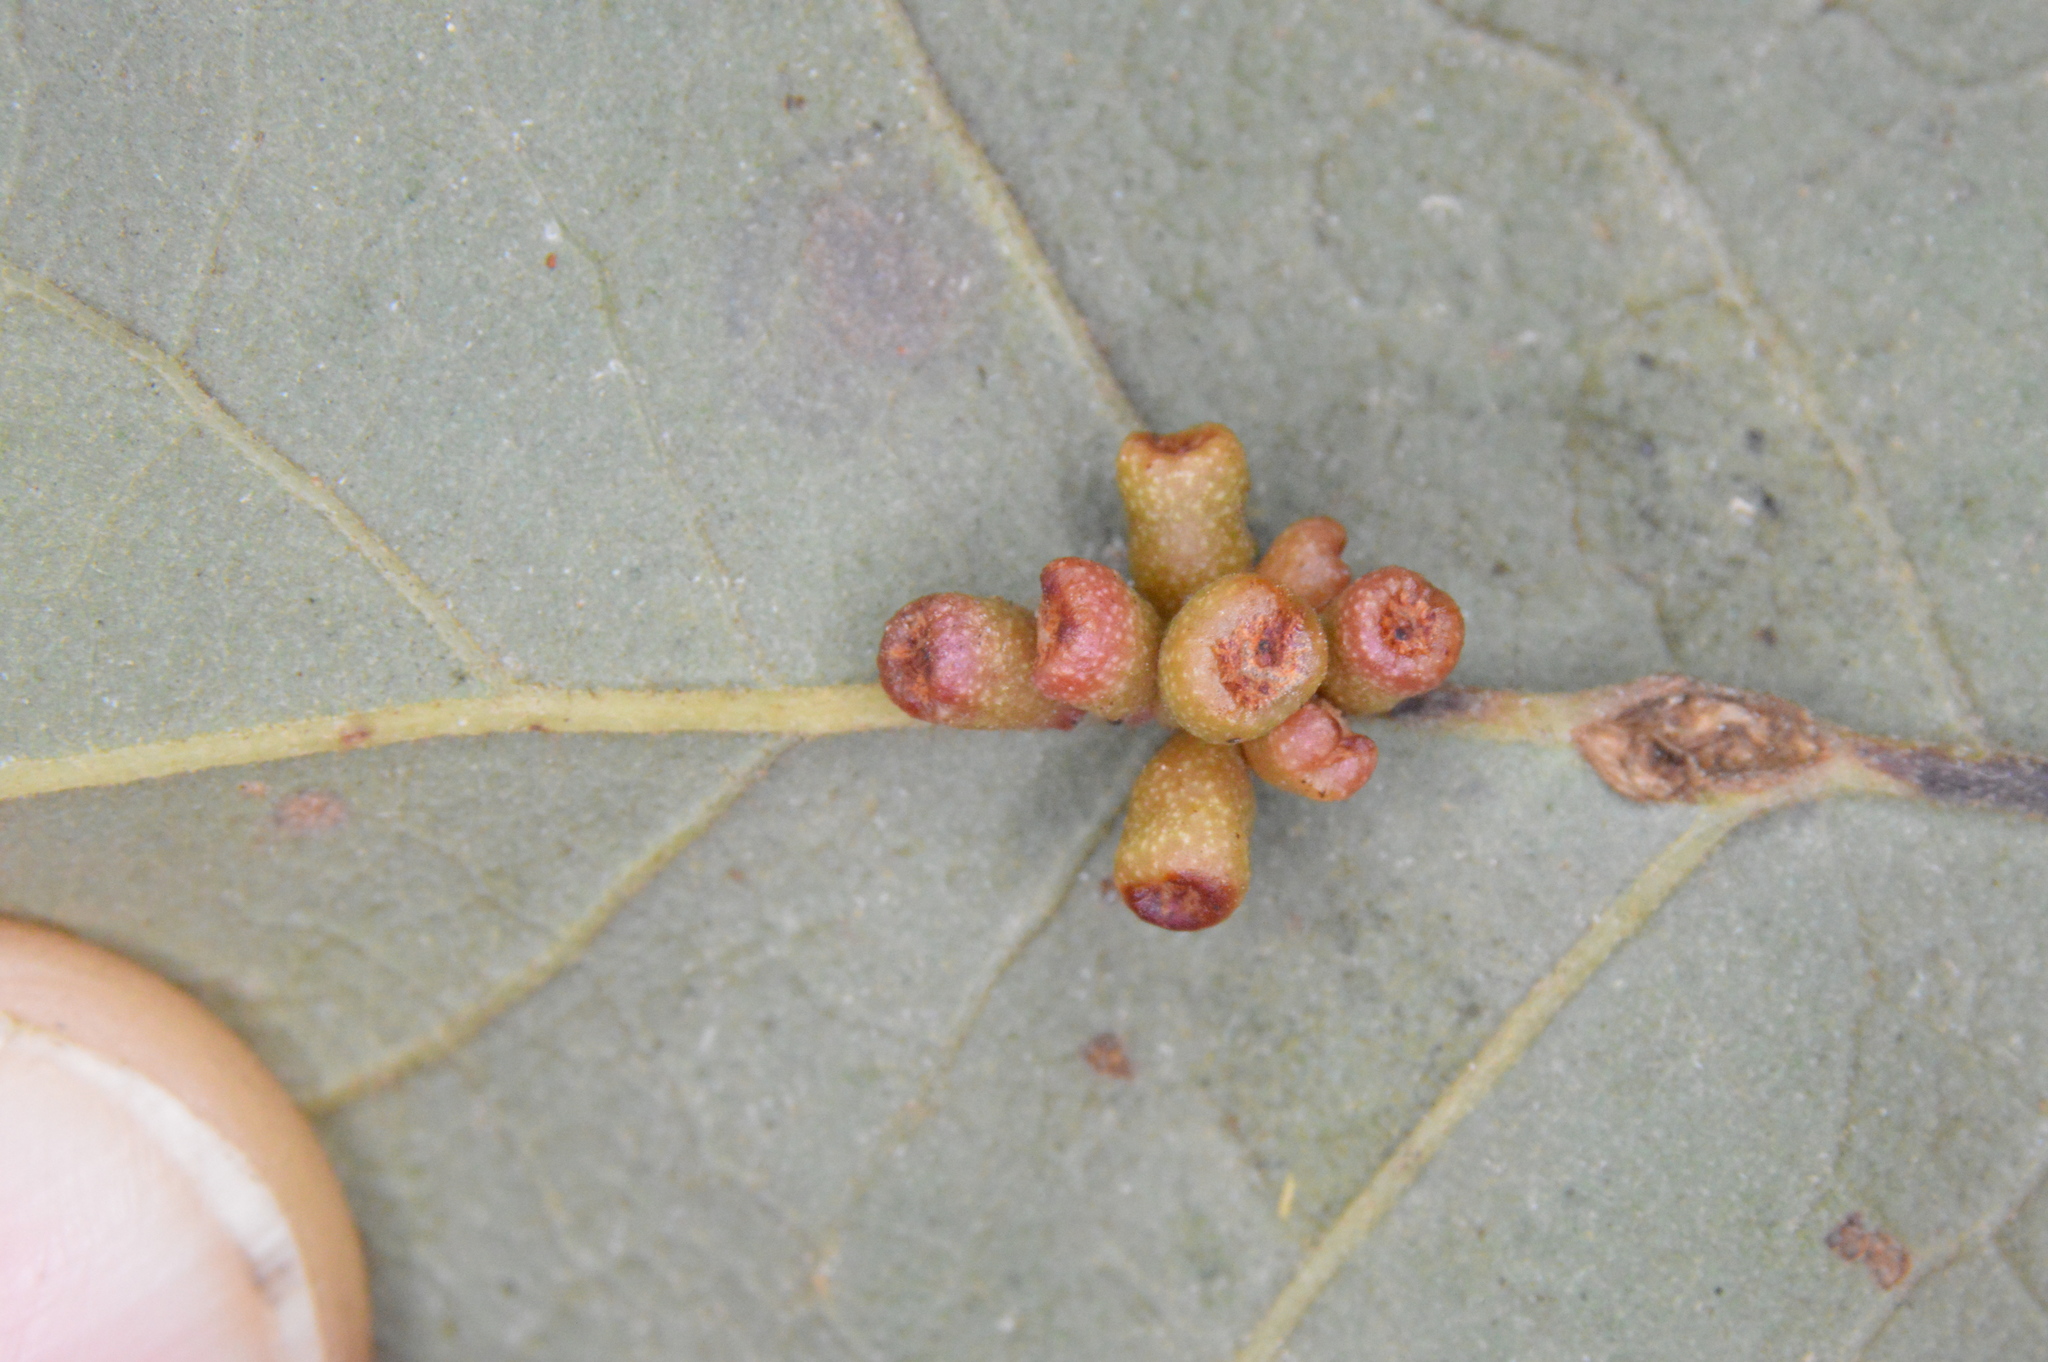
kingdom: Animalia
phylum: Arthropoda
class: Insecta
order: Hymenoptera
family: Cynipidae
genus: Andricus
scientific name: Andricus lustrans
